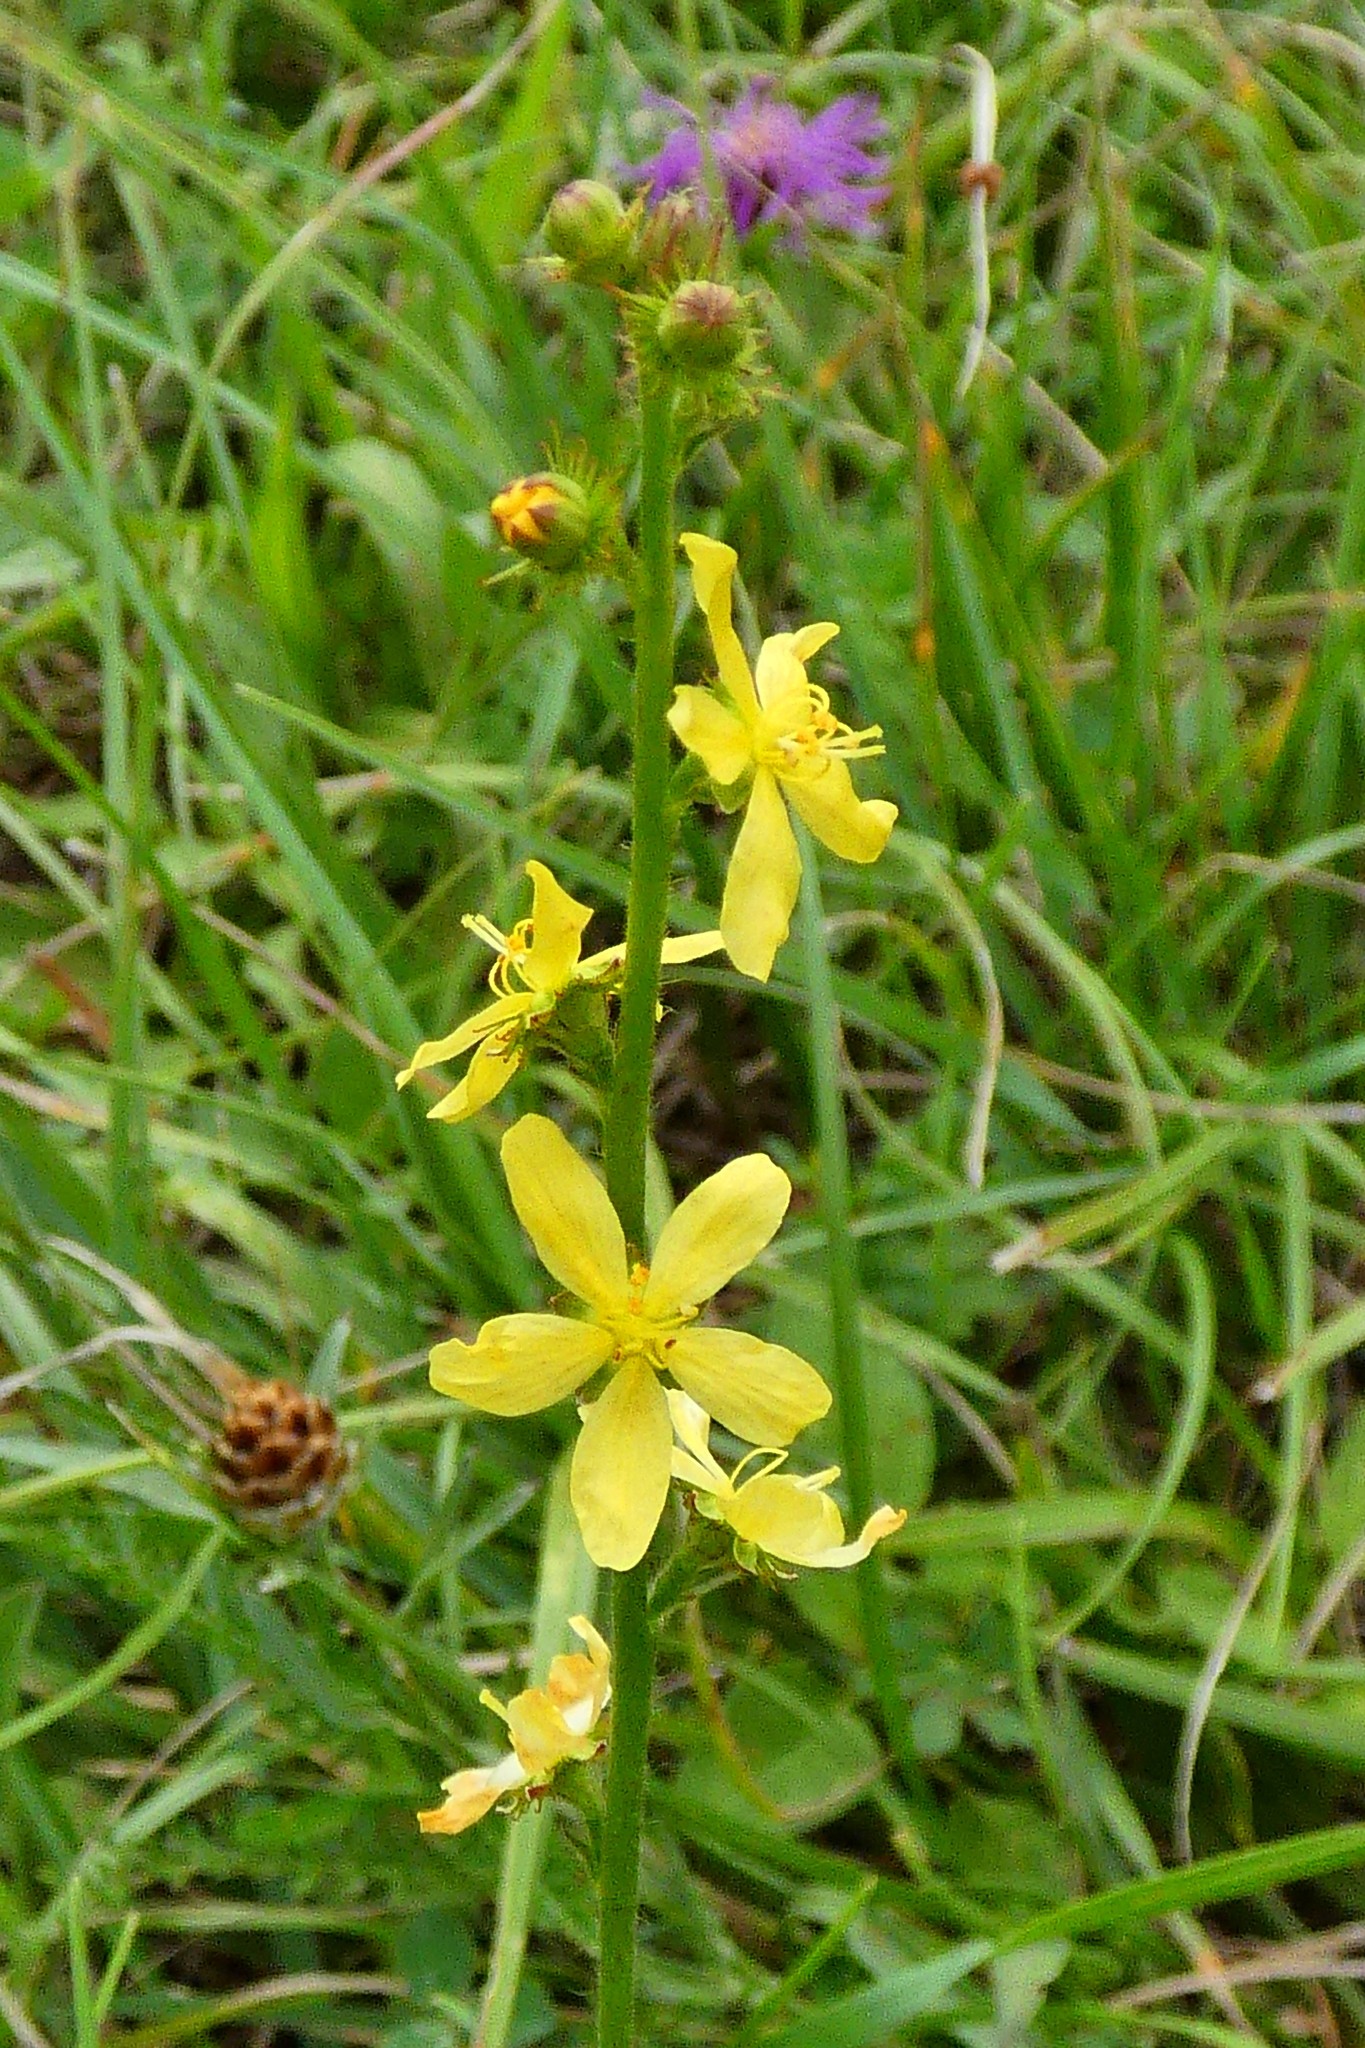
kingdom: Plantae
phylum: Tracheophyta
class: Magnoliopsida
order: Rosales
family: Rosaceae
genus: Agrimonia
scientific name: Agrimonia eupatoria
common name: Agrimony
